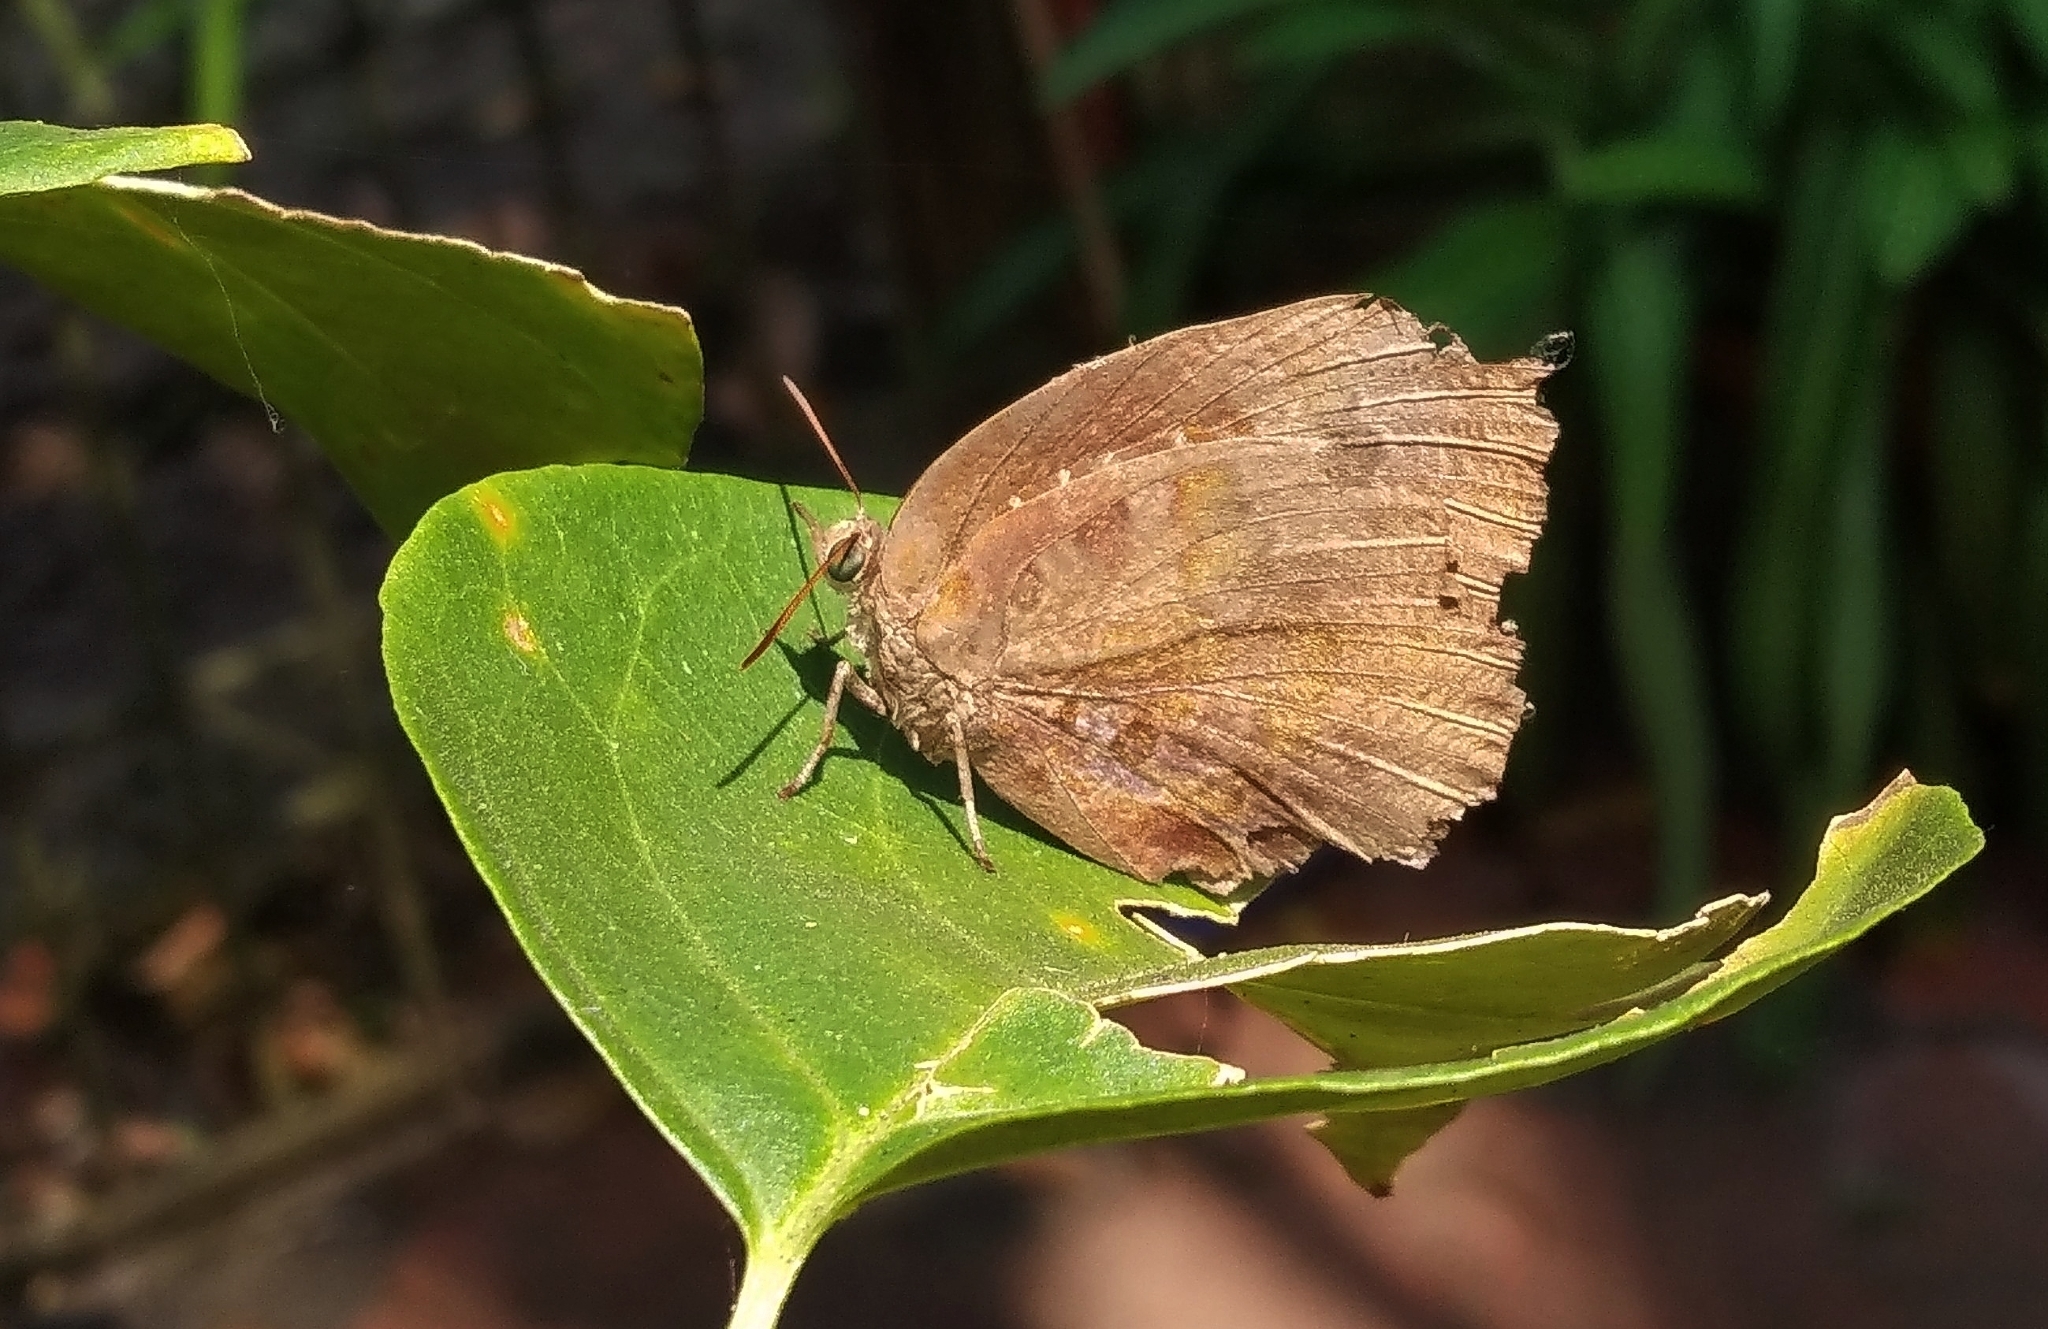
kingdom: Animalia
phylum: Arthropoda
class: Insecta
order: Lepidoptera
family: Lycaenidae
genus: Arhopala
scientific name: Arhopala centaurus
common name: Dull oak-blue
